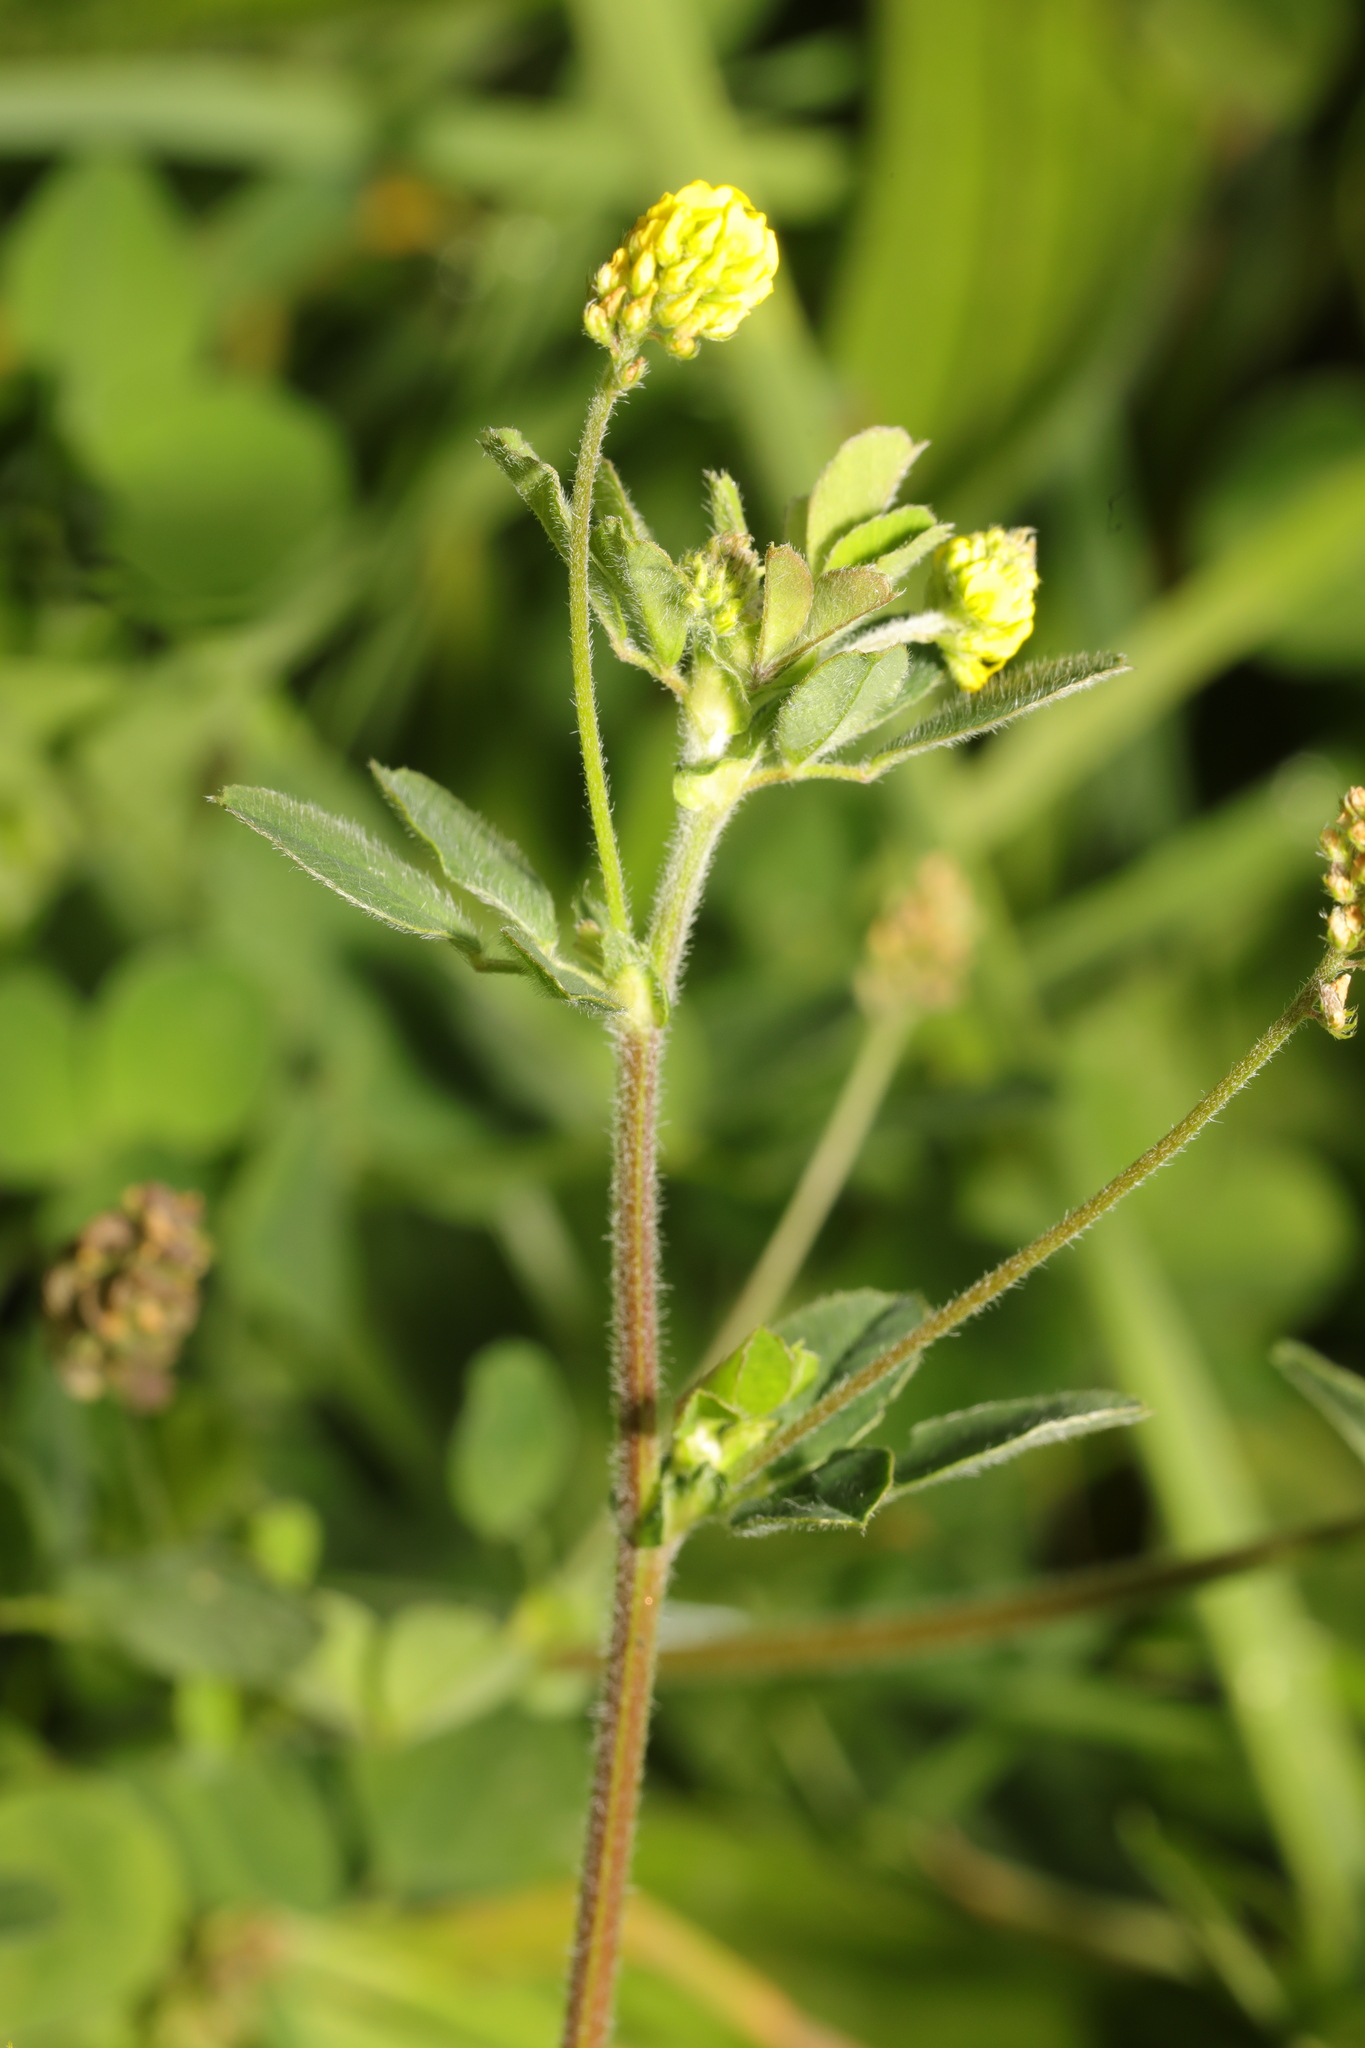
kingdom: Plantae
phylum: Tracheophyta
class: Magnoliopsida
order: Fabales
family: Fabaceae
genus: Medicago
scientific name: Medicago lupulina
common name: Black medick
